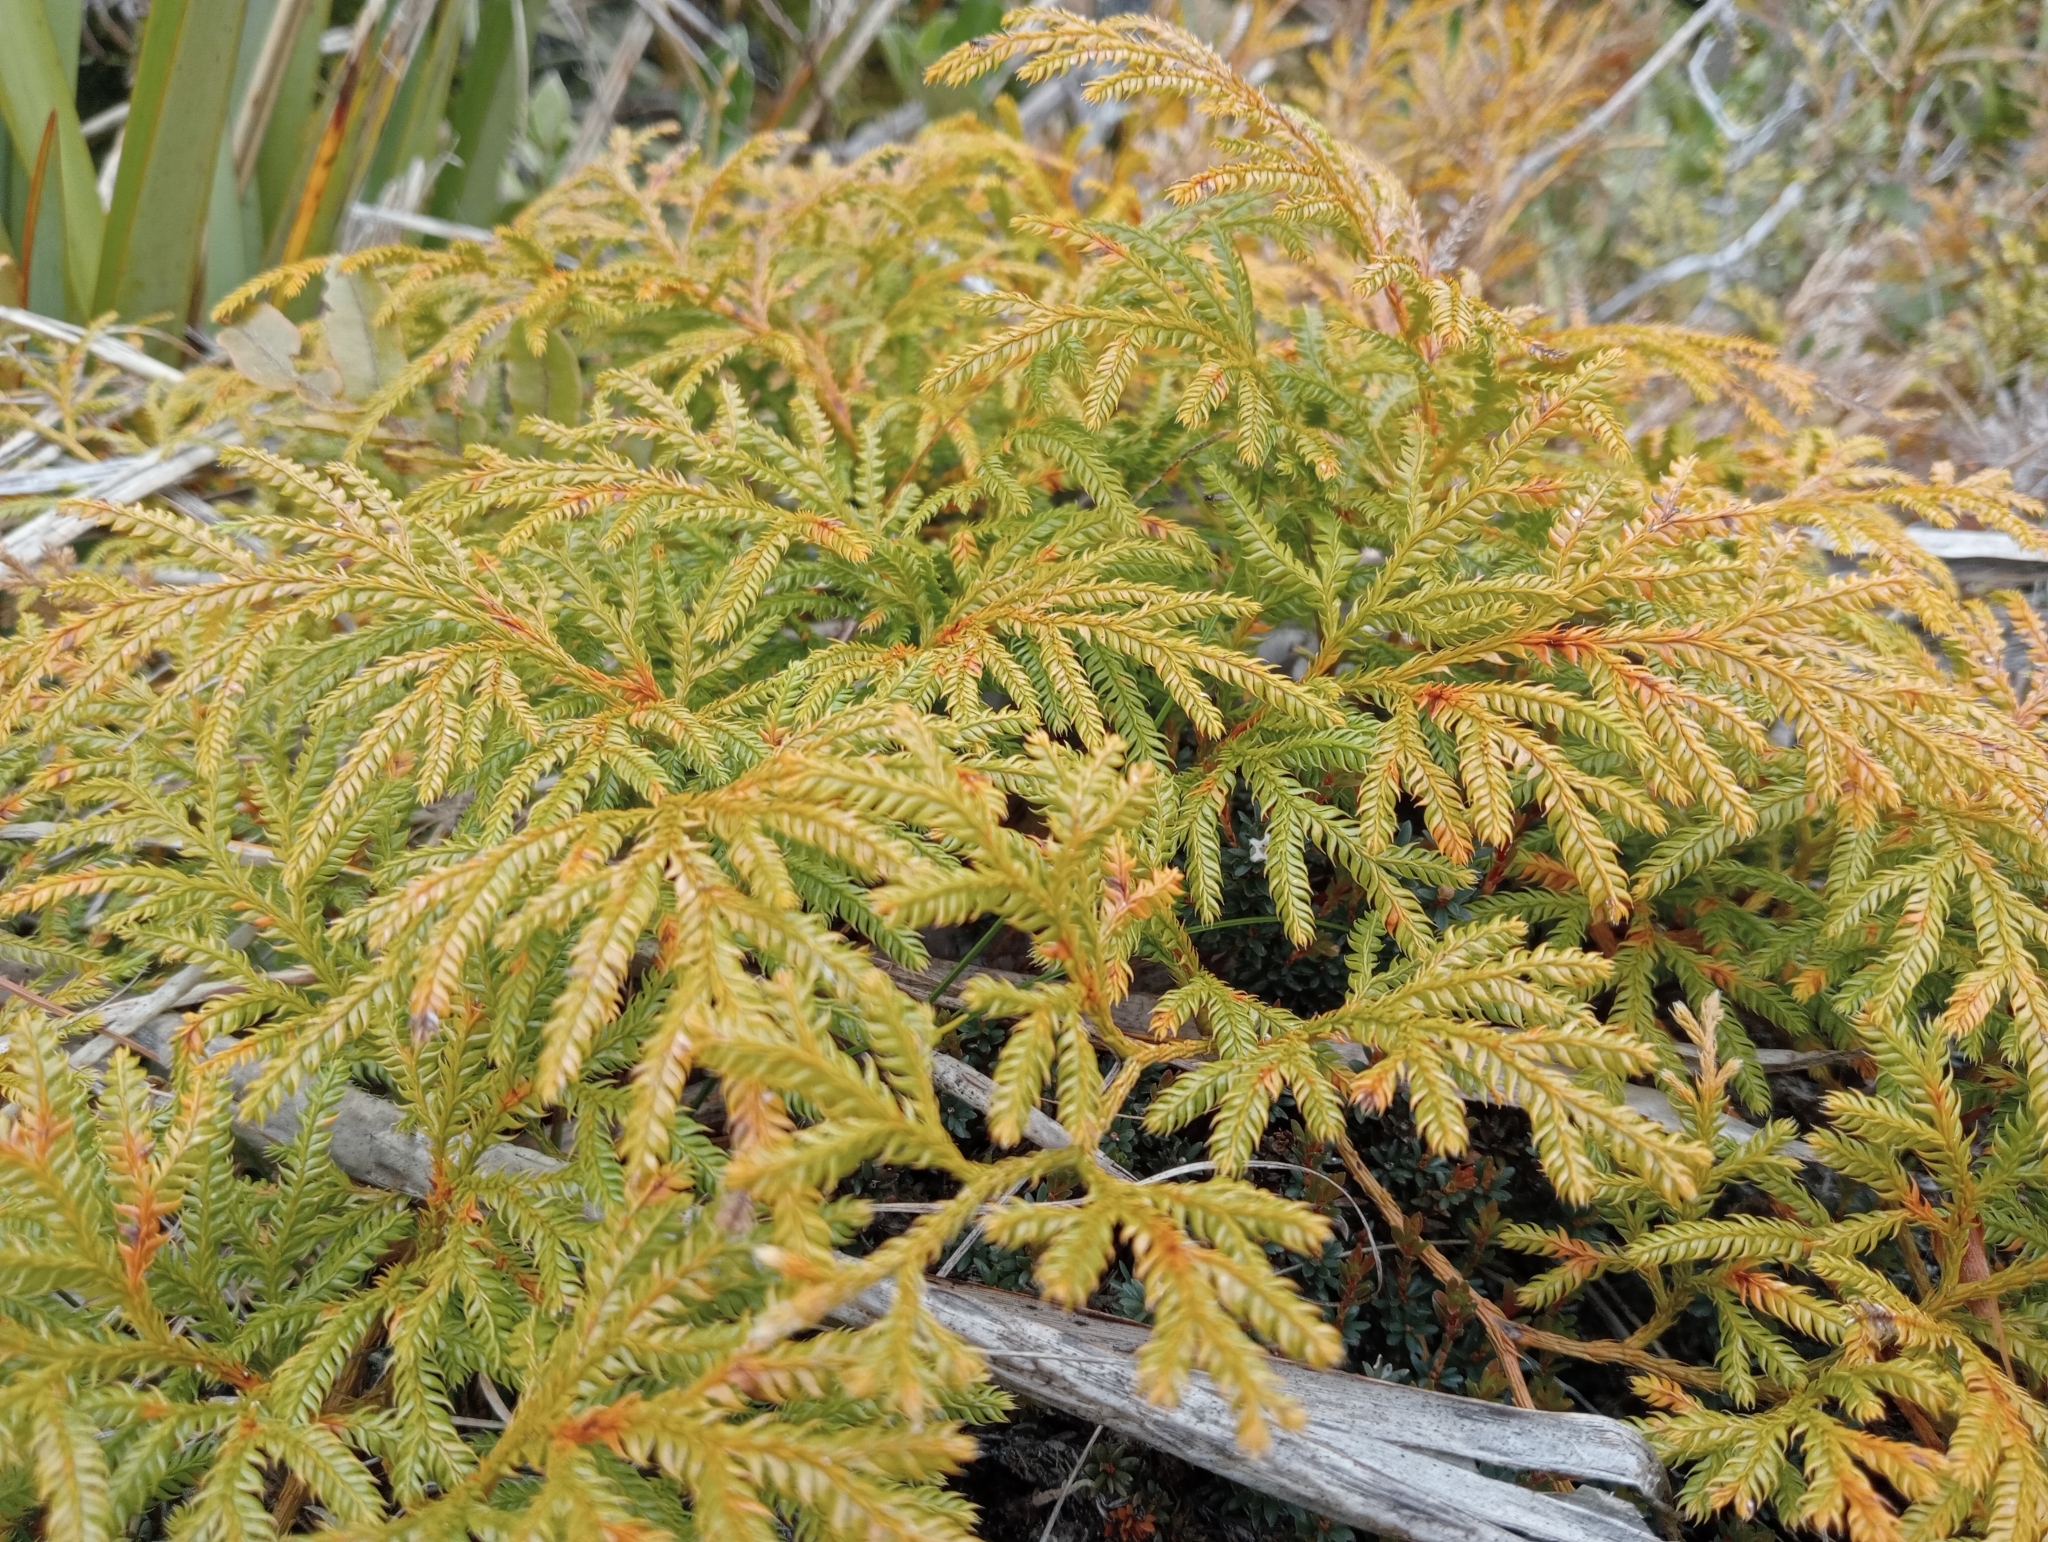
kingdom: Plantae
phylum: Tracheophyta
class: Lycopodiopsida
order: Lycopodiales
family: Lycopodiaceae
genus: Lycopodium
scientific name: Lycopodium volubile
